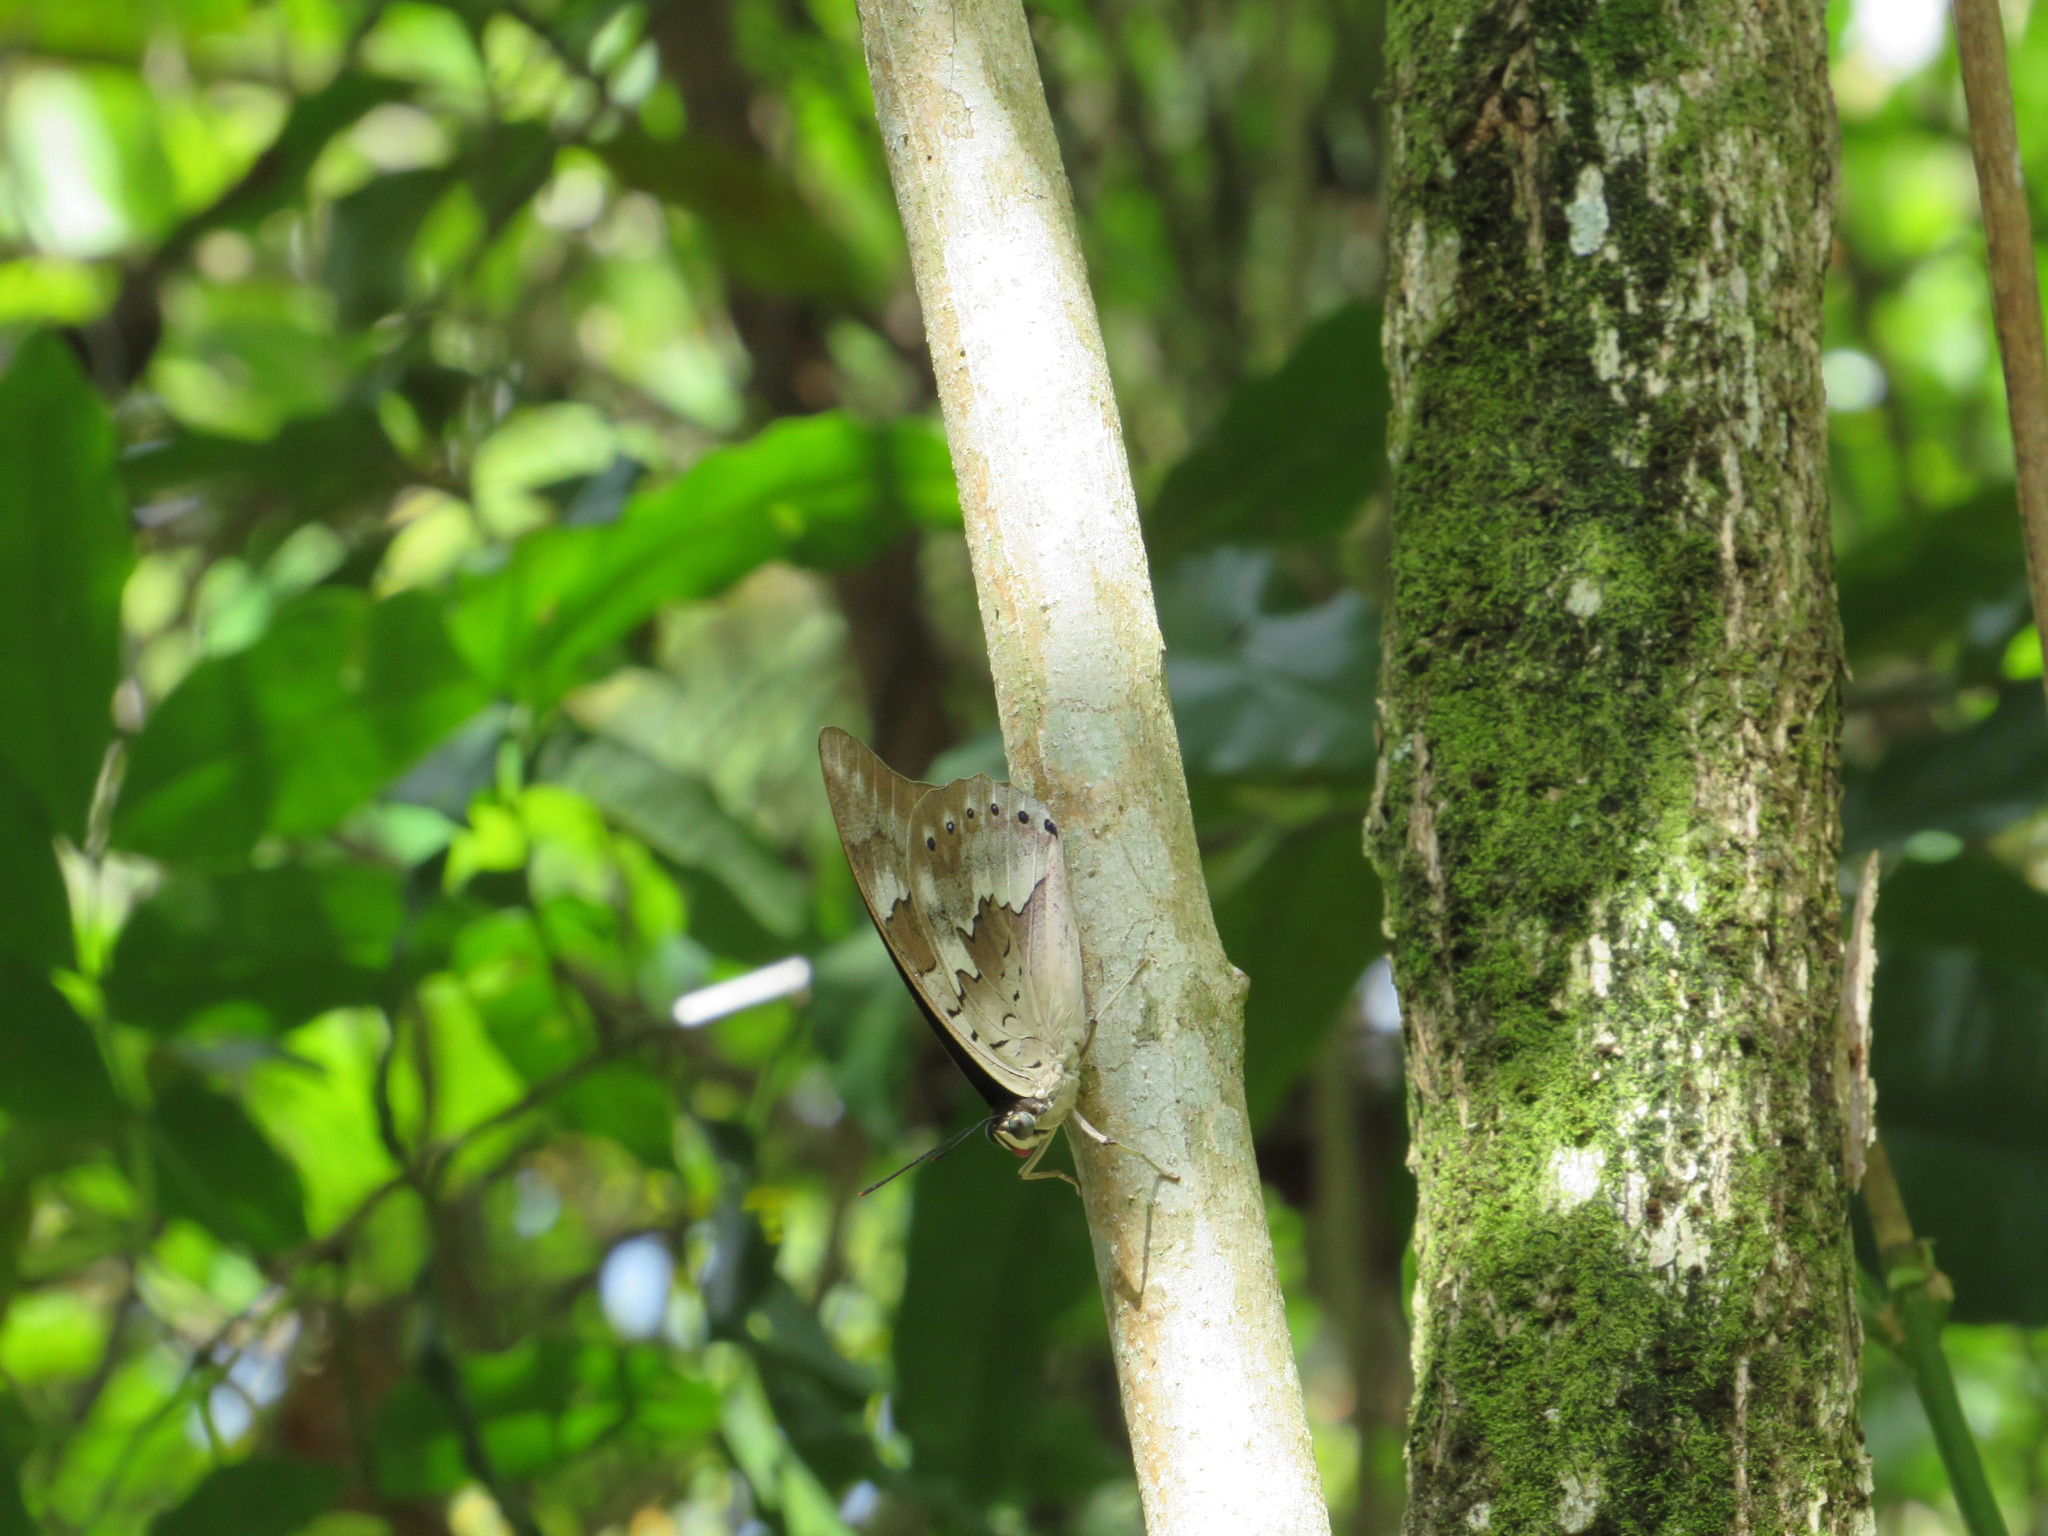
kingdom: Animalia
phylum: Arthropoda
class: Insecta
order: Lepidoptera
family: Nymphalidae
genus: Prepona
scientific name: Prepona demophoon
